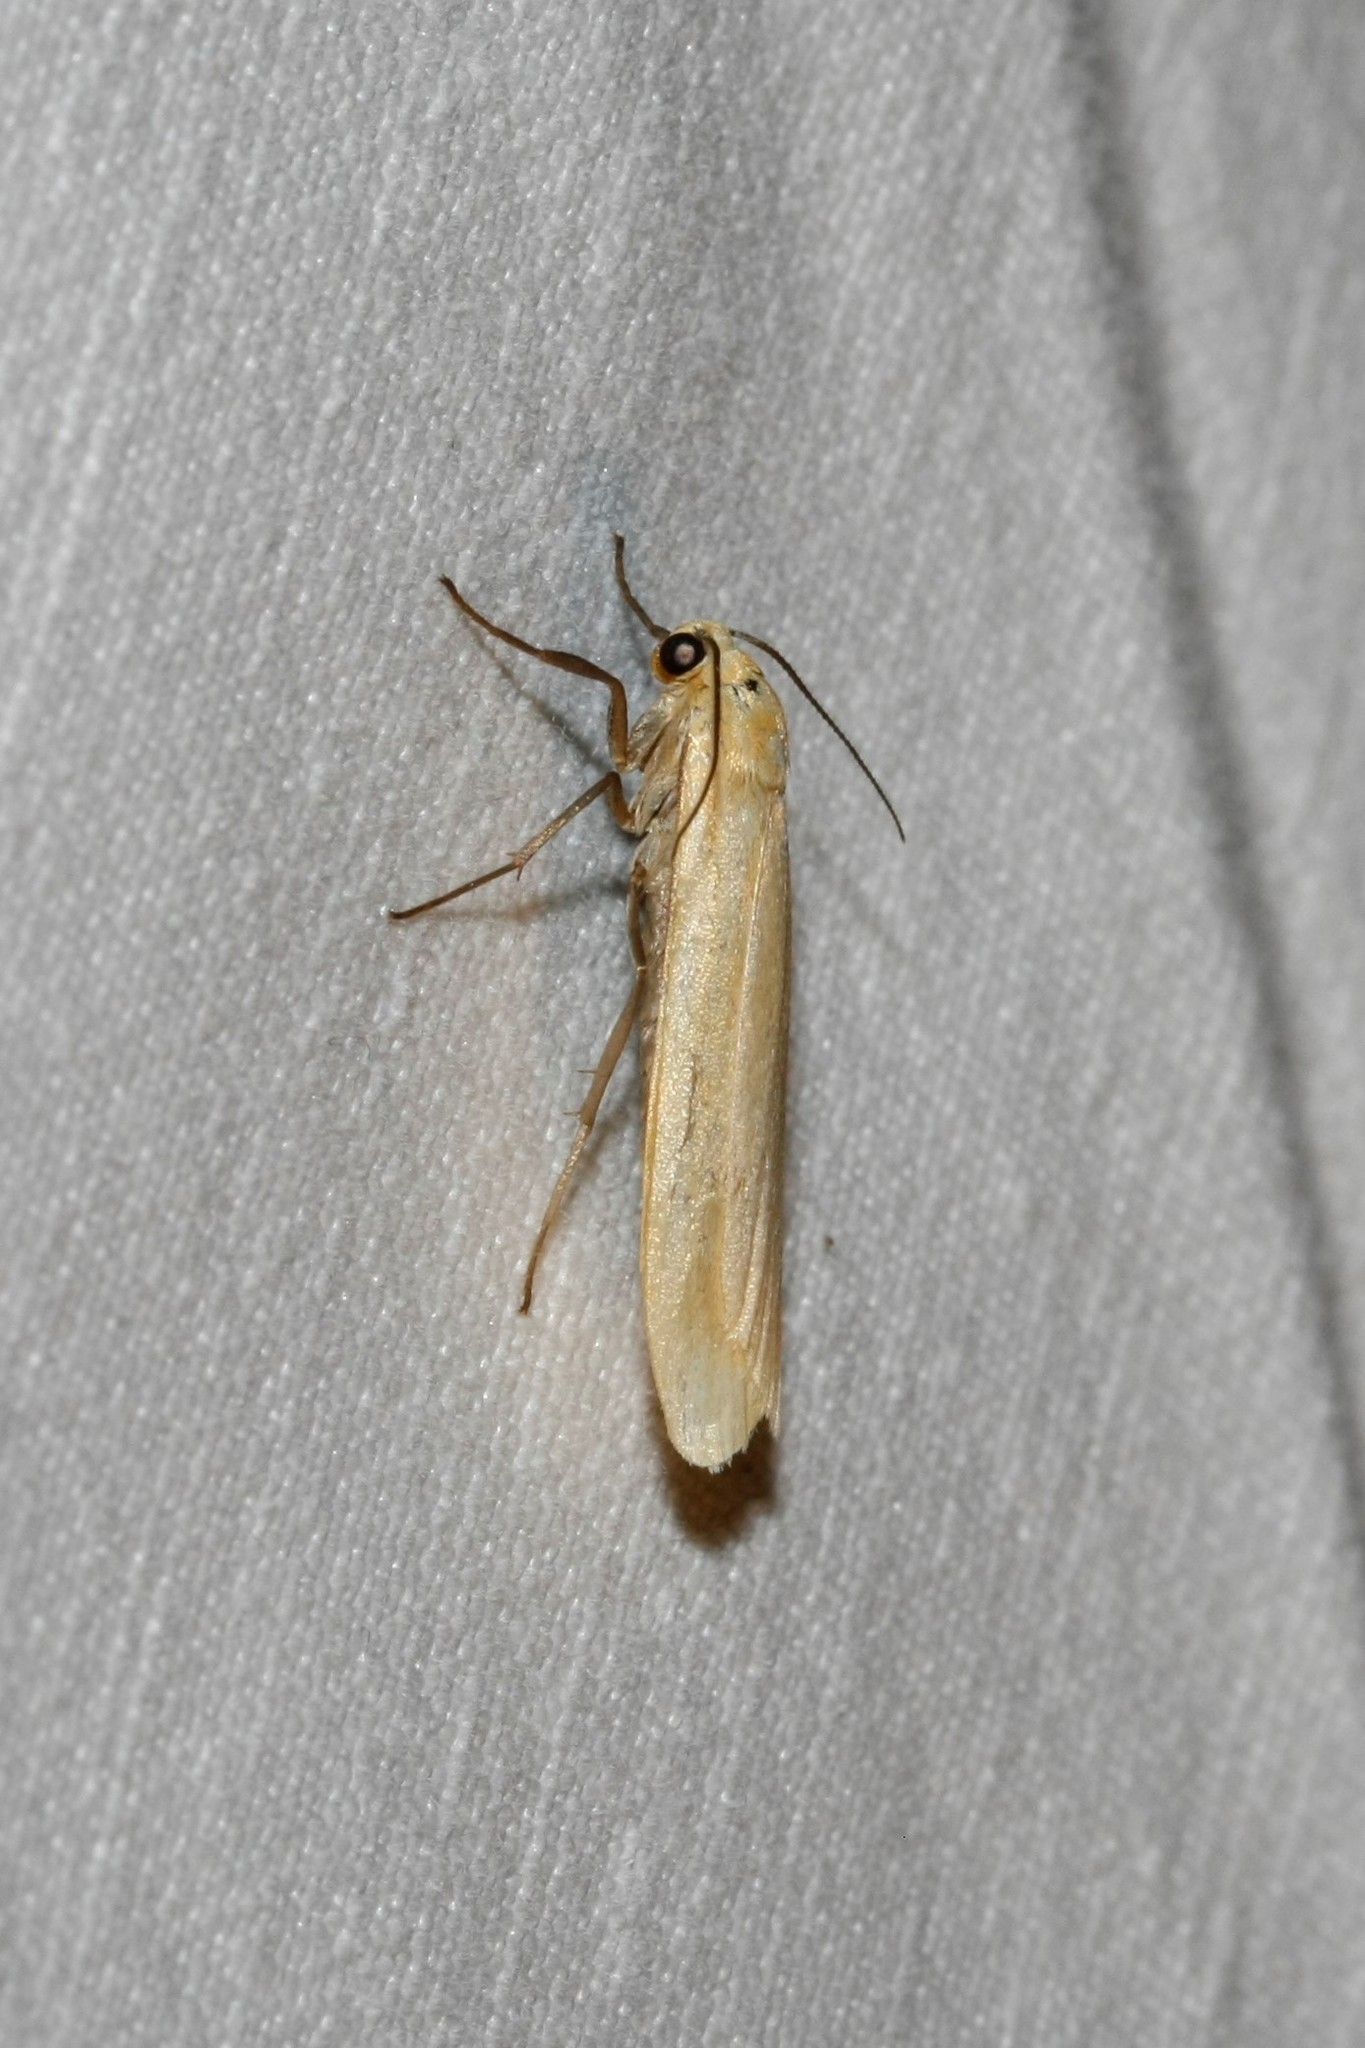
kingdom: Animalia
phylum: Arthropoda
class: Insecta
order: Lepidoptera
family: Erebidae
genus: Wittia
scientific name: Wittia sororcula
